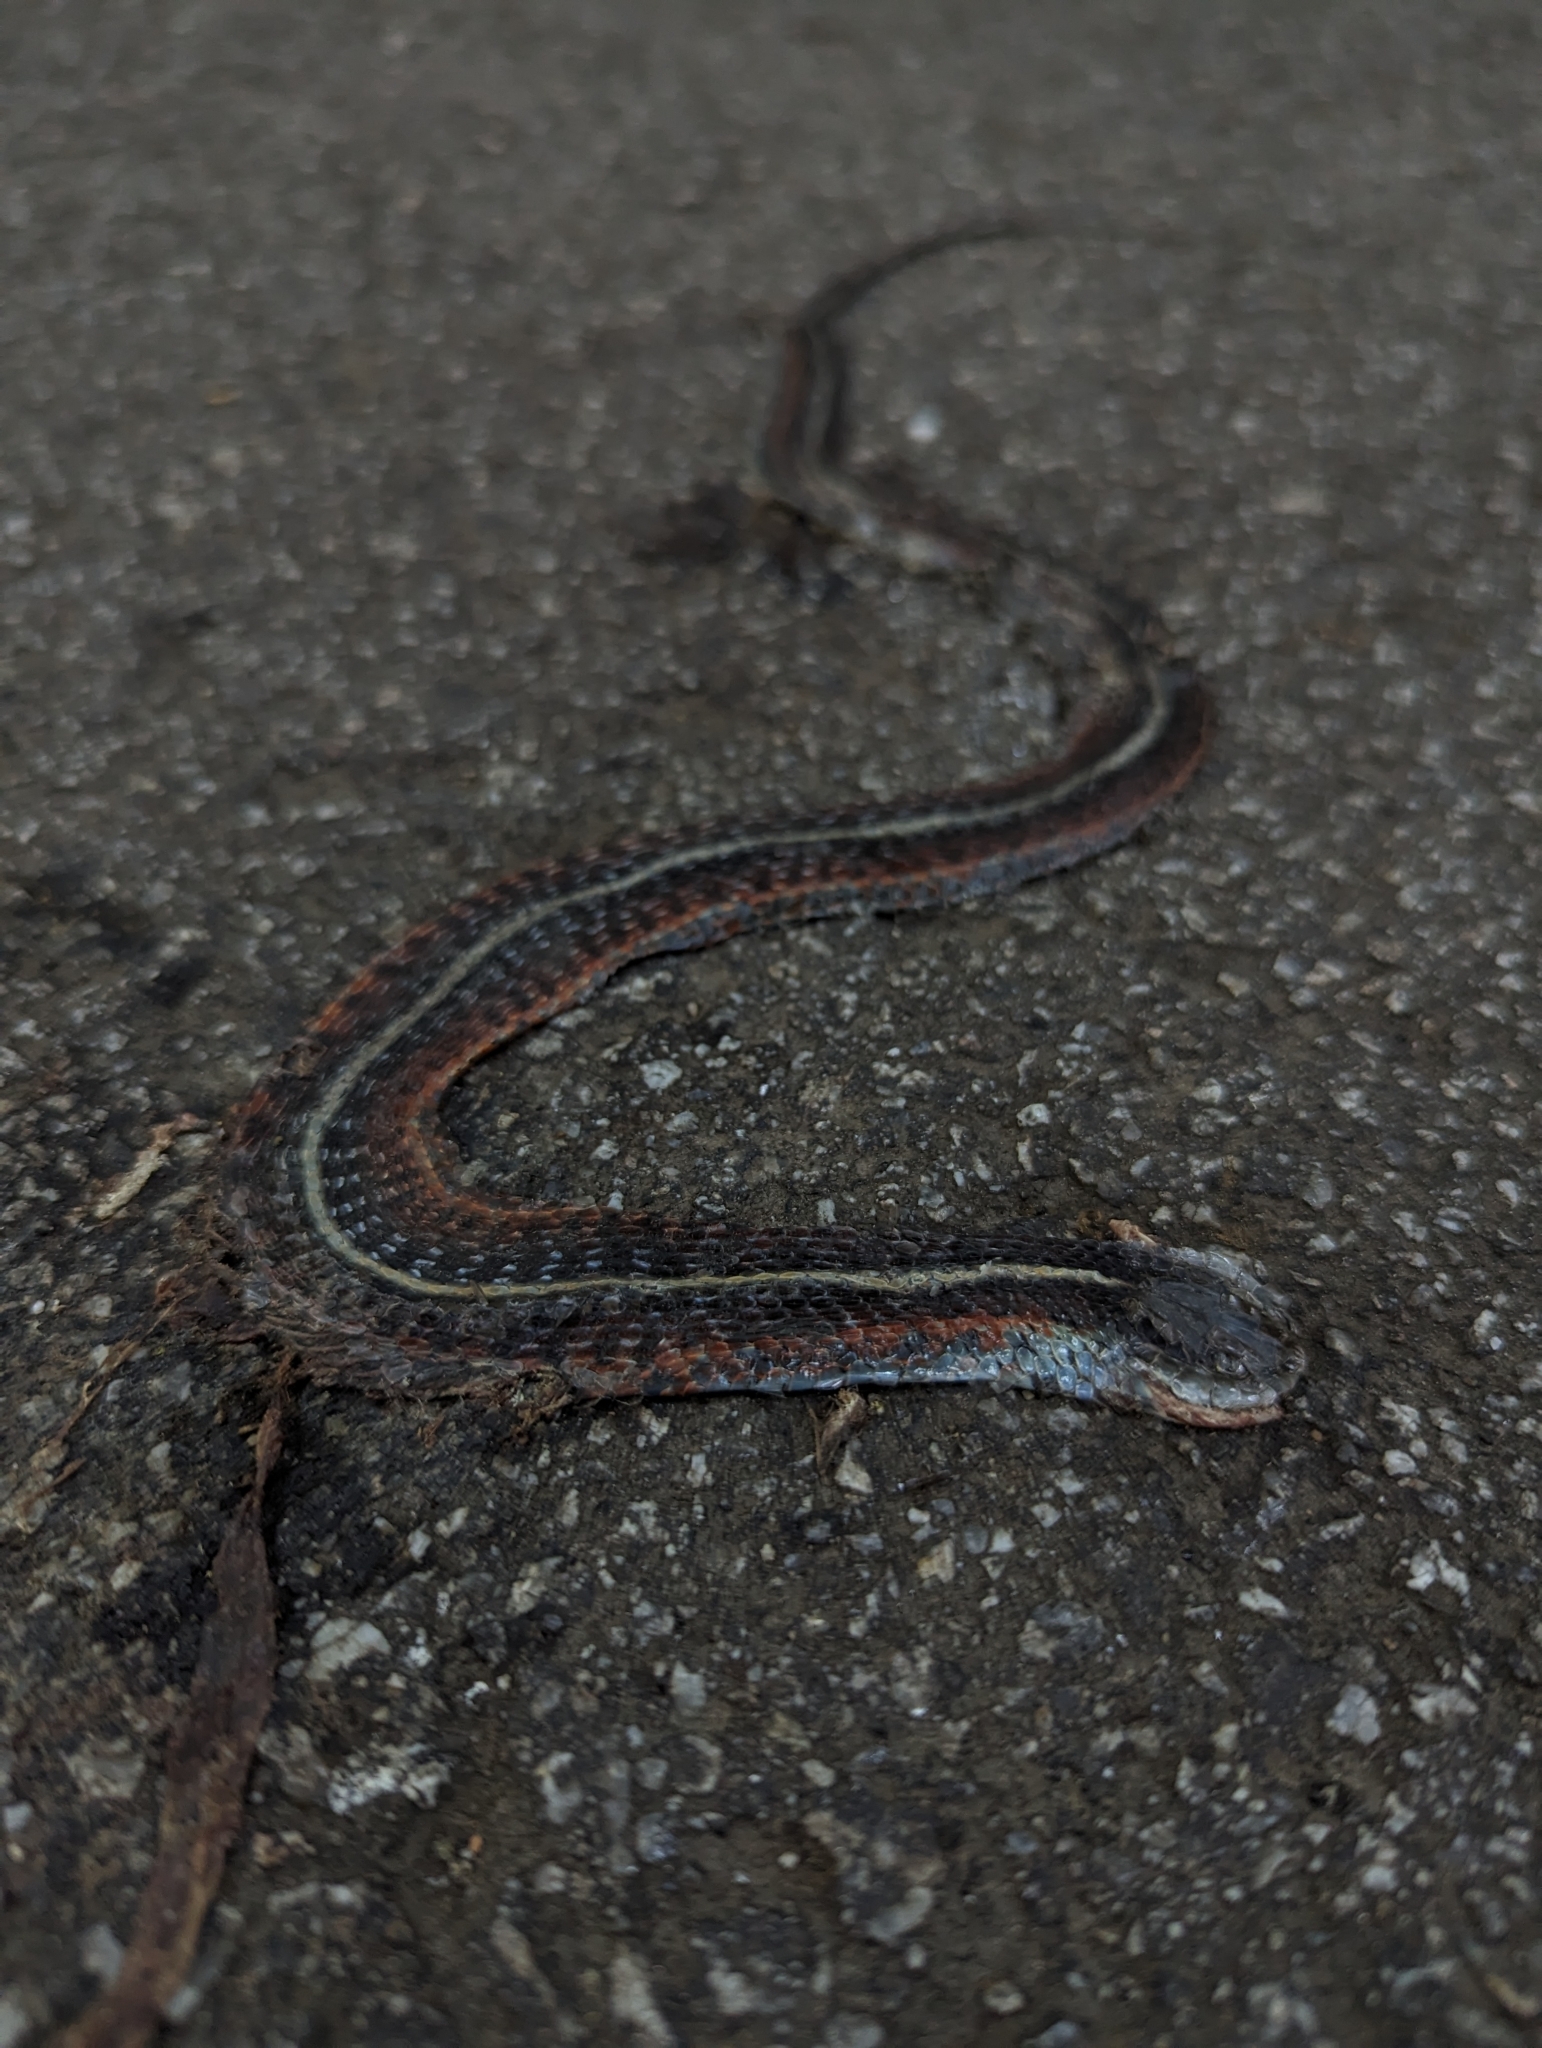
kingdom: Animalia
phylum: Chordata
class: Squamata
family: Colubridae
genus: Thamnophis
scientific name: Thamnophis elegans
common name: Western terrestrial garter snake
